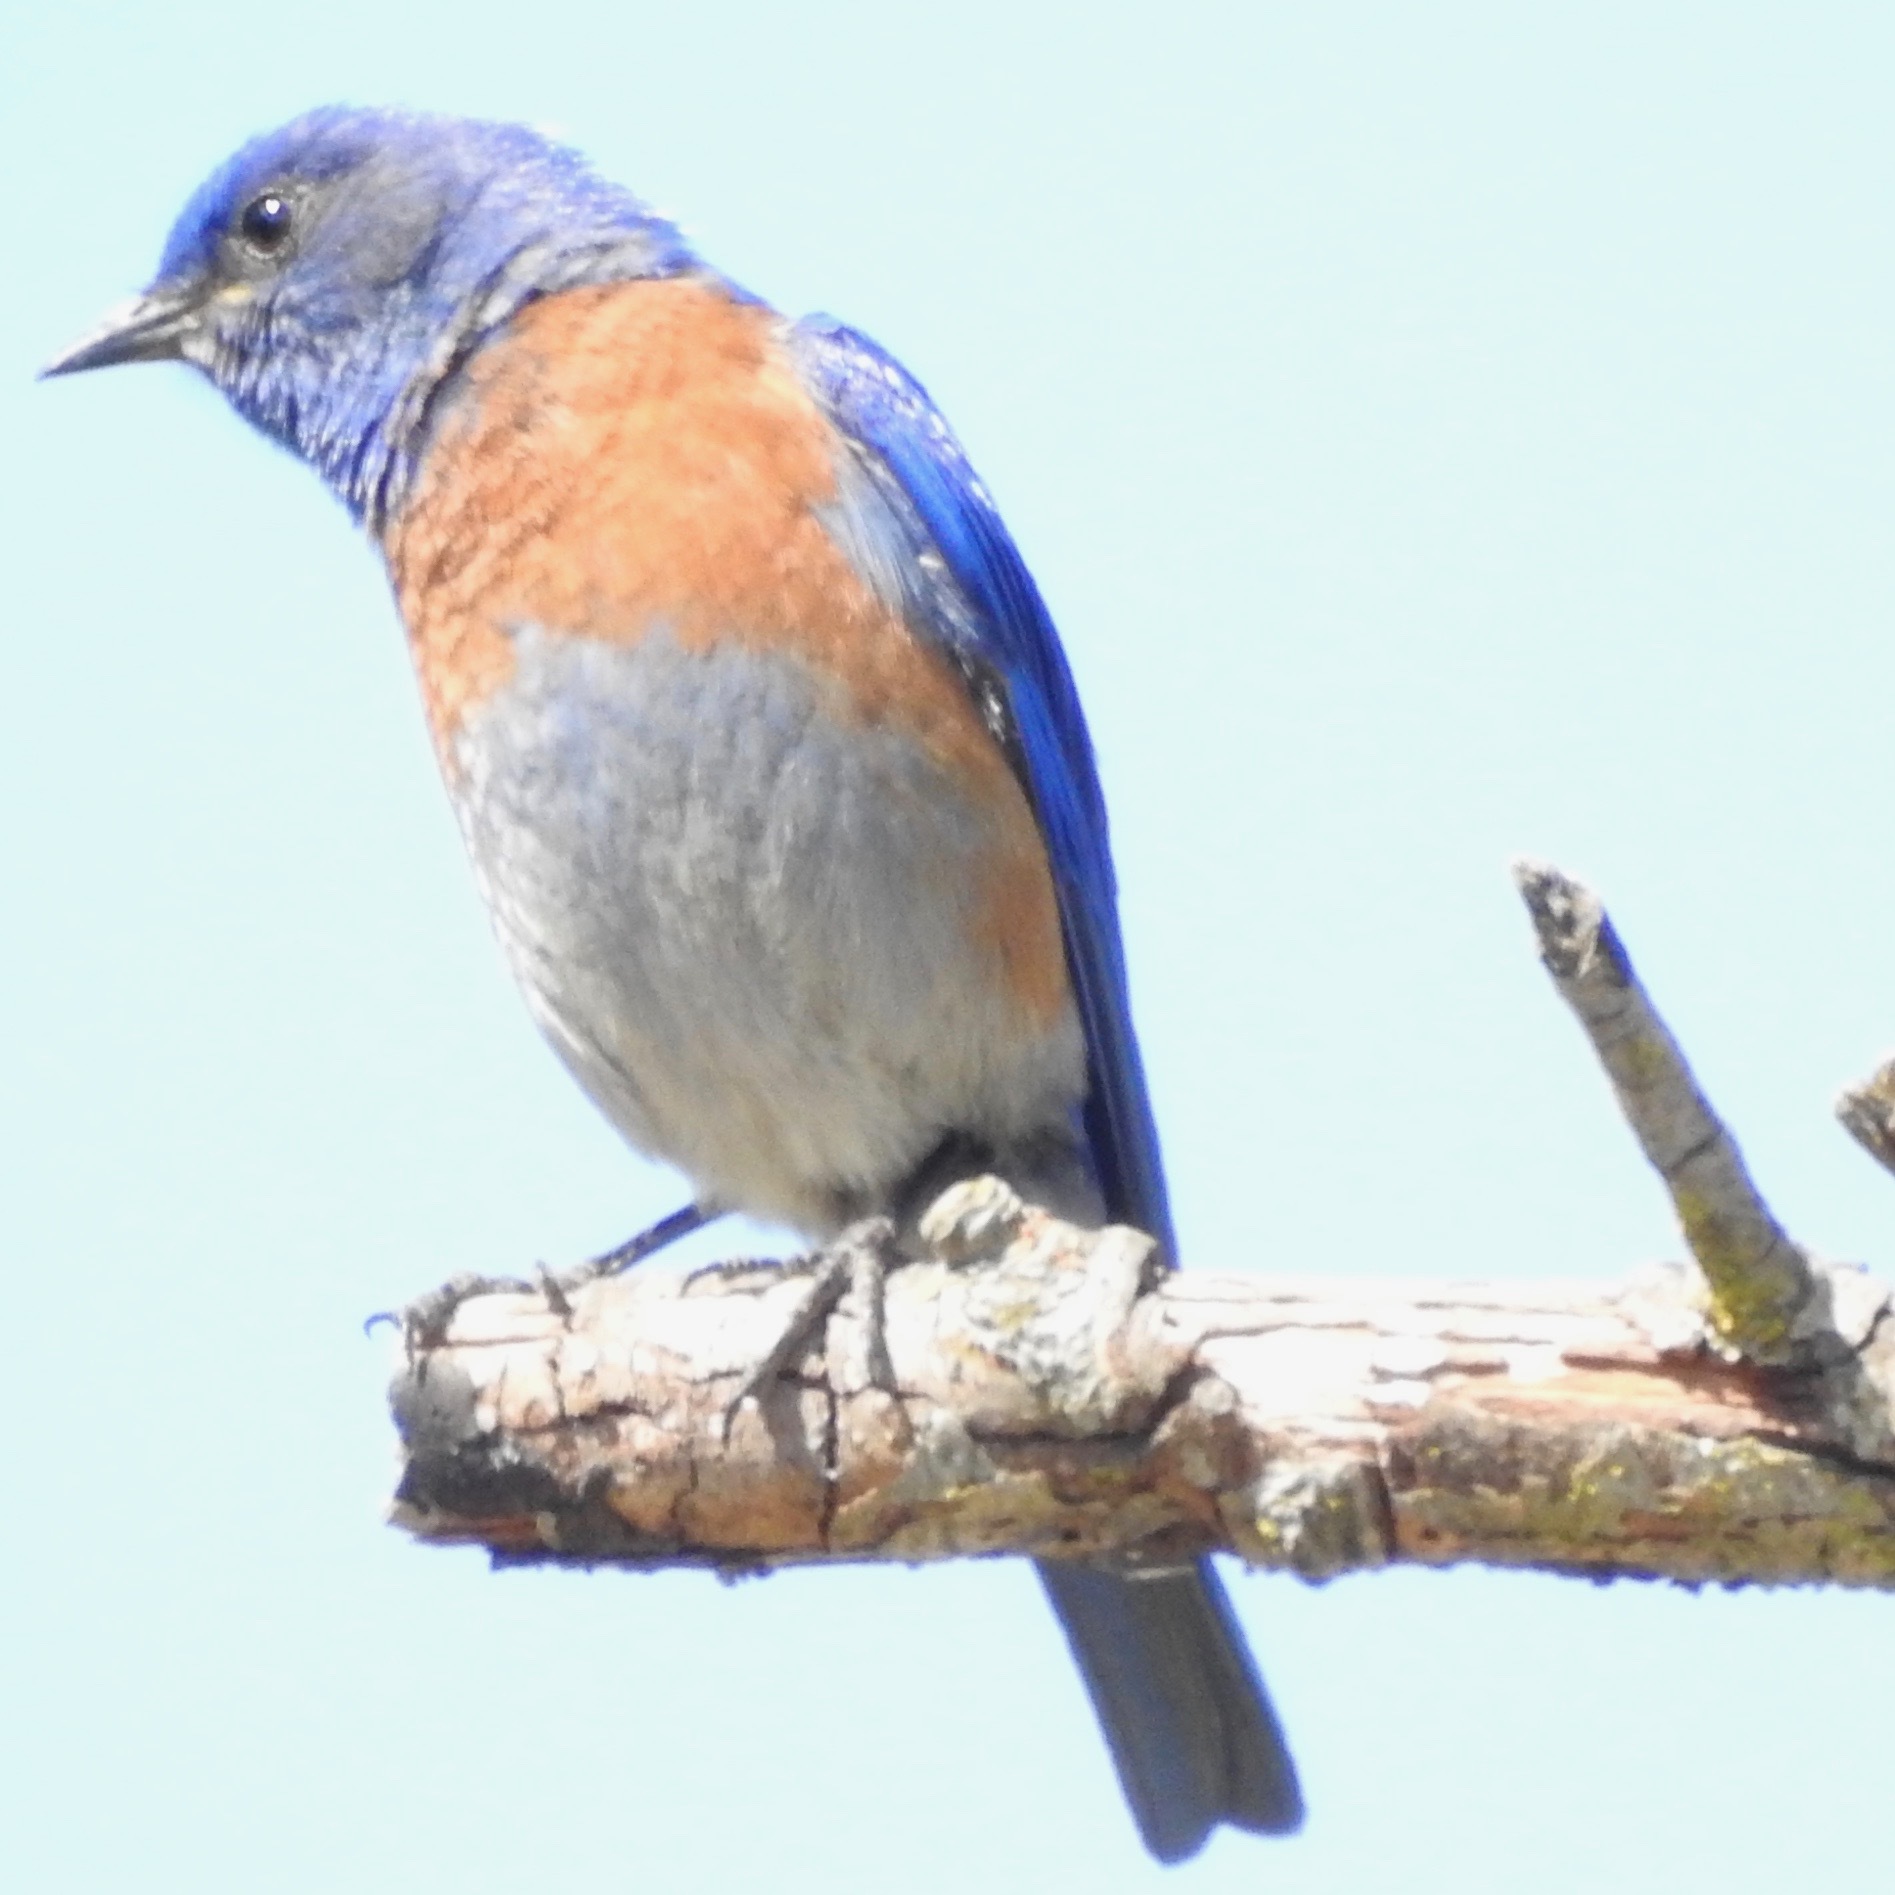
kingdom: Animalia
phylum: Chordata
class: Aves
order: Passeriformes
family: Turdidae
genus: Sialia
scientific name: Sialia mexicana
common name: Western bluebird
